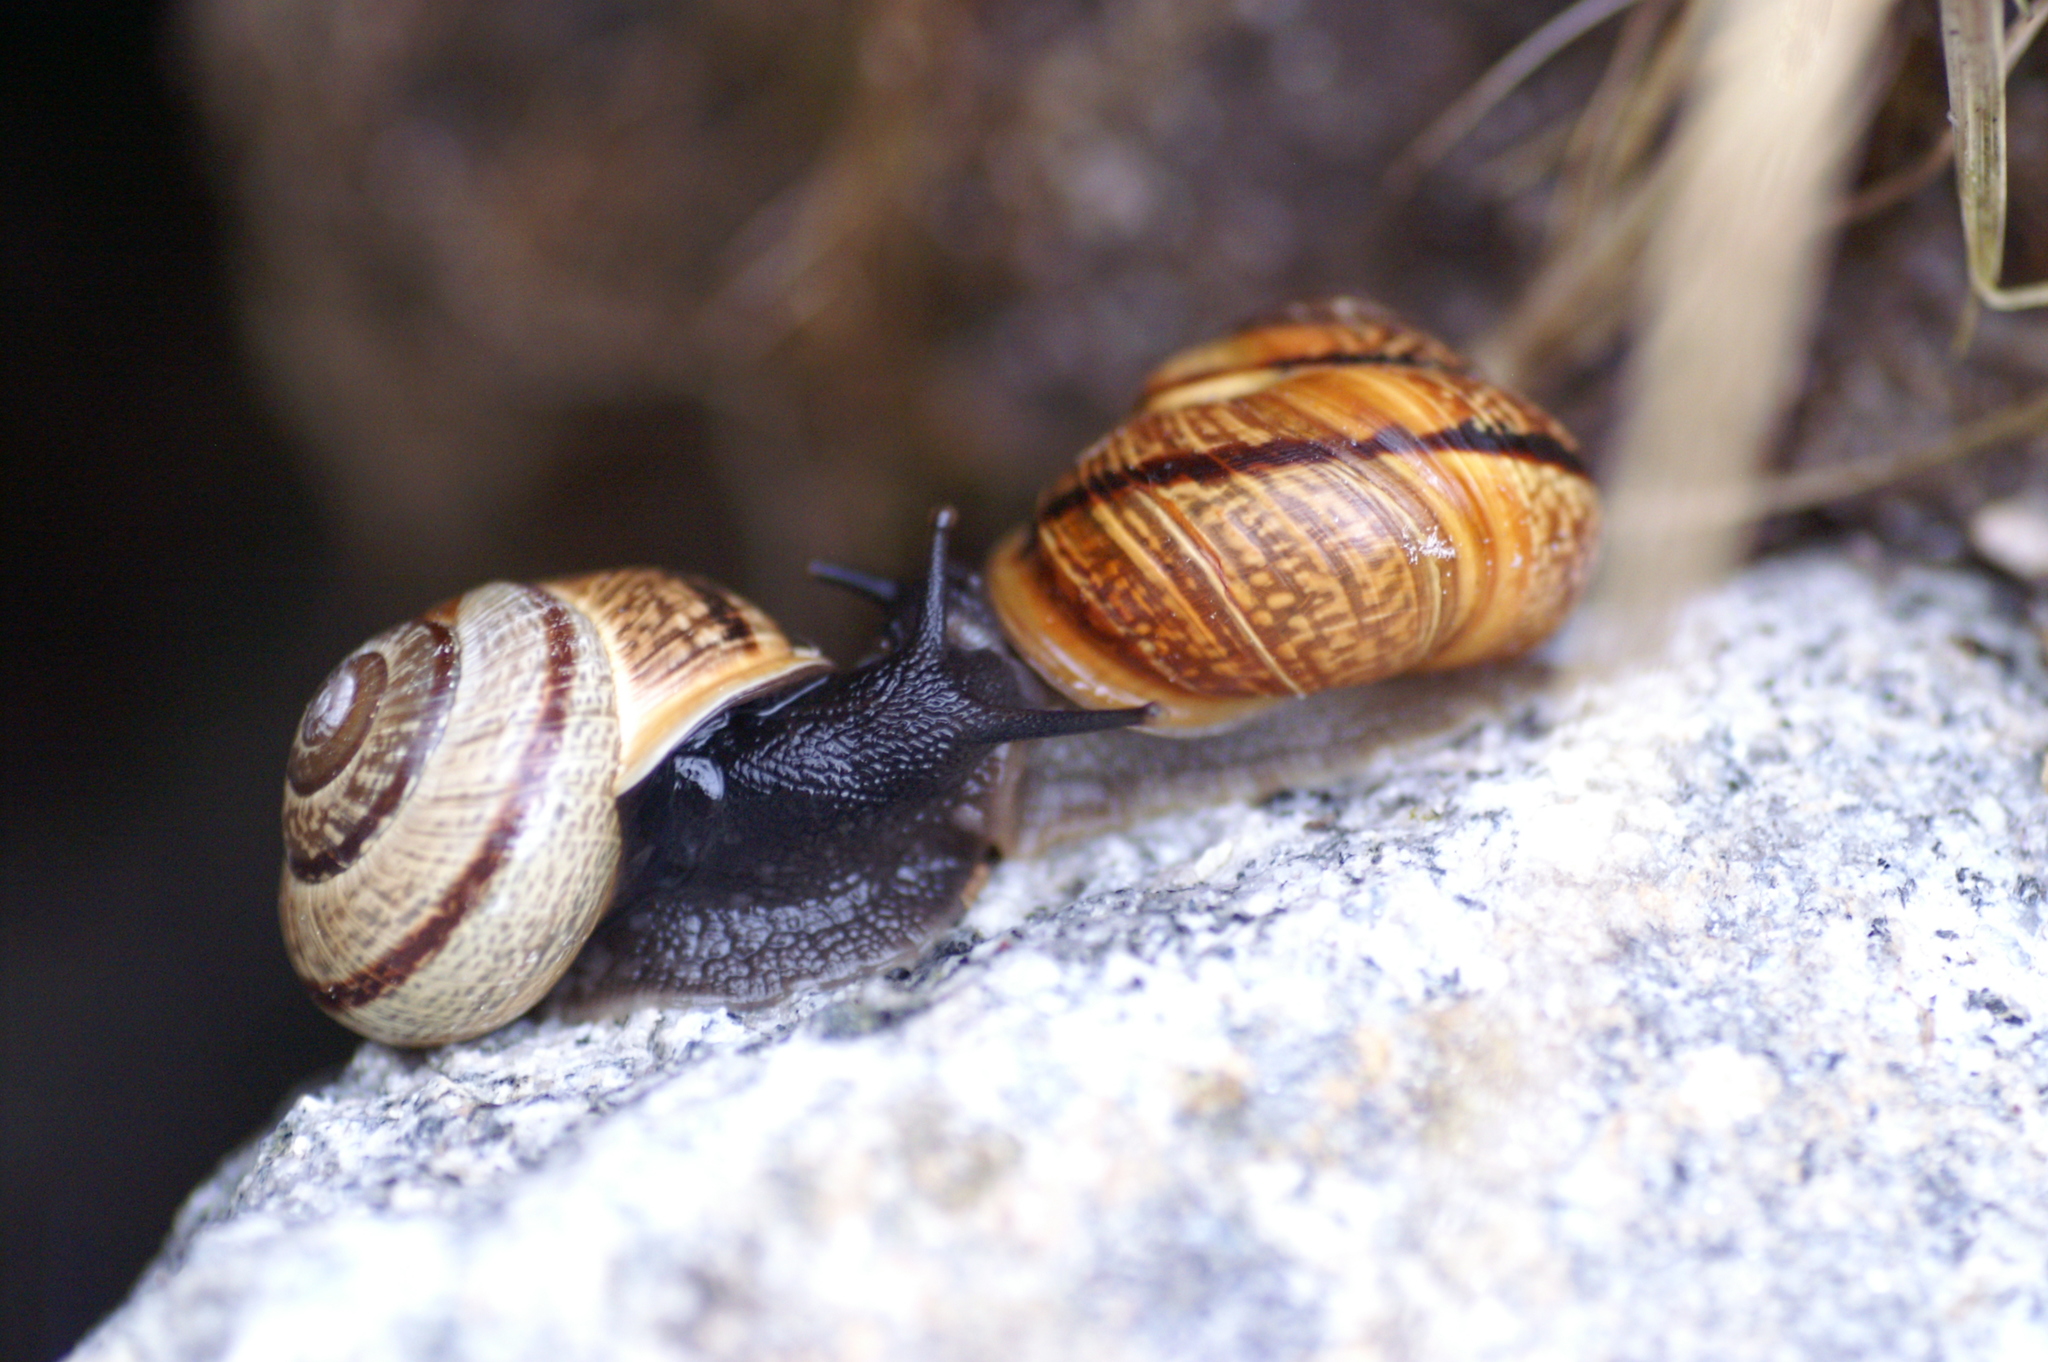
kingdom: Animalia
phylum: Mollusca
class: Gastropoda
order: Stylommatophora
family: Helicidae
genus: Arianta
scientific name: Arianta arbustorum
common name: Copse snail
